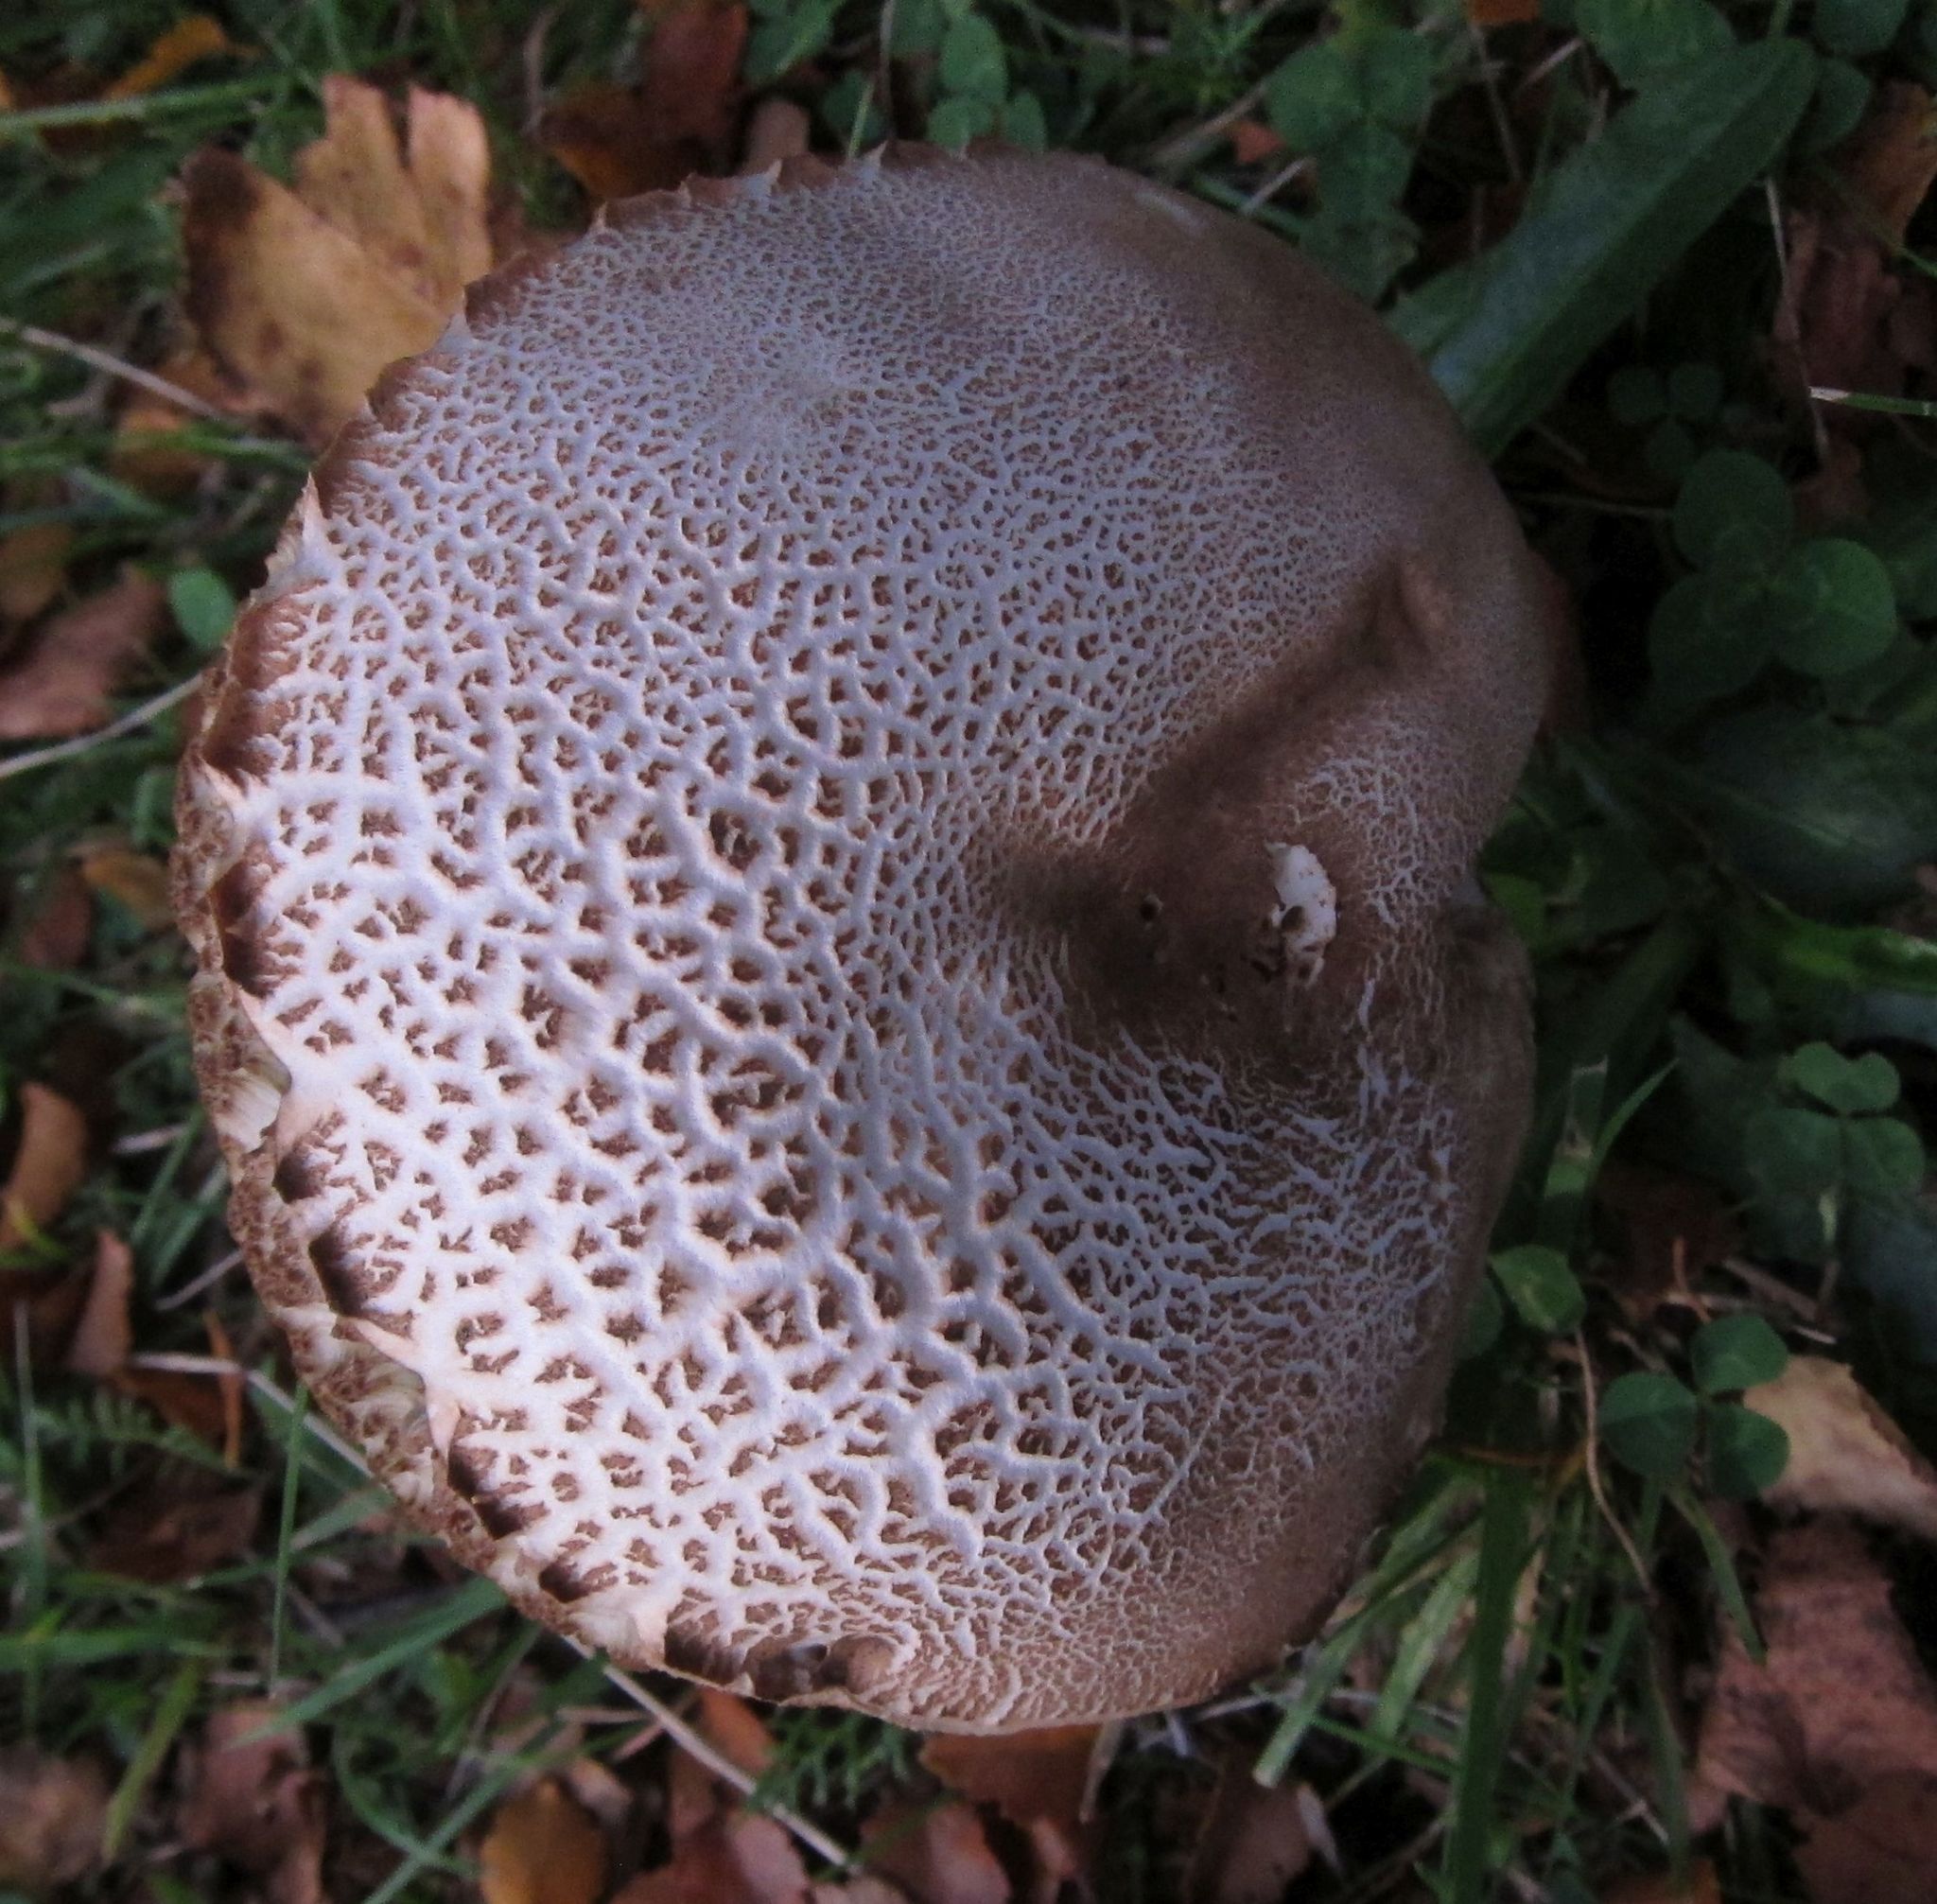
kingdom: Fungi
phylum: Basidiomycota
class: Agaricomycetes
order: Boletales
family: Boletaceae
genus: Leccinum
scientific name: Leccinum scabrum
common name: Blushing bolete
